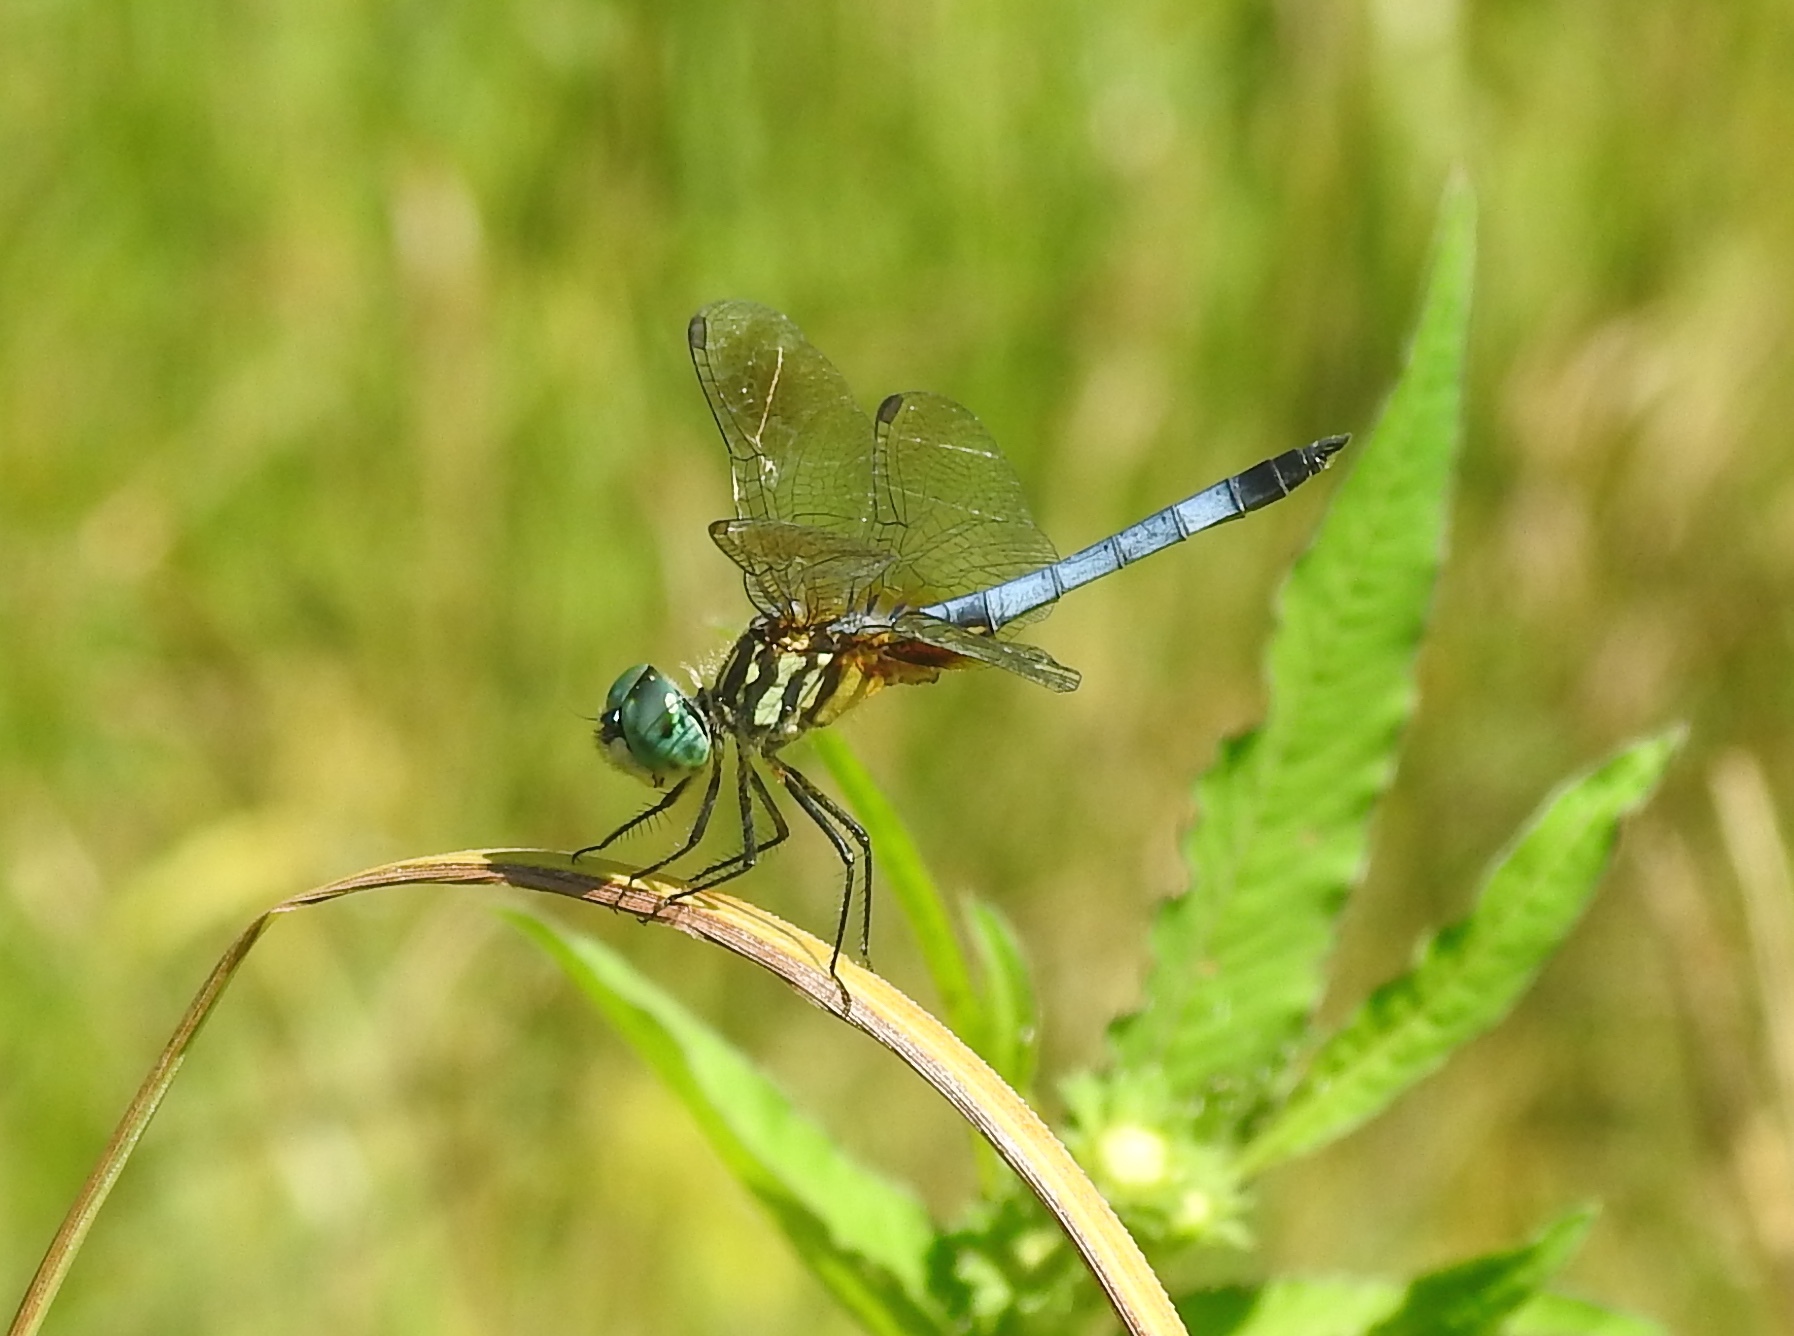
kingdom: Animalia
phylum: Arthropoda
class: Insecta
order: Odonata
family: Libellulidae
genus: Pachydiplax
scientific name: Pachydiplax longipennis
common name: Blue dasher
